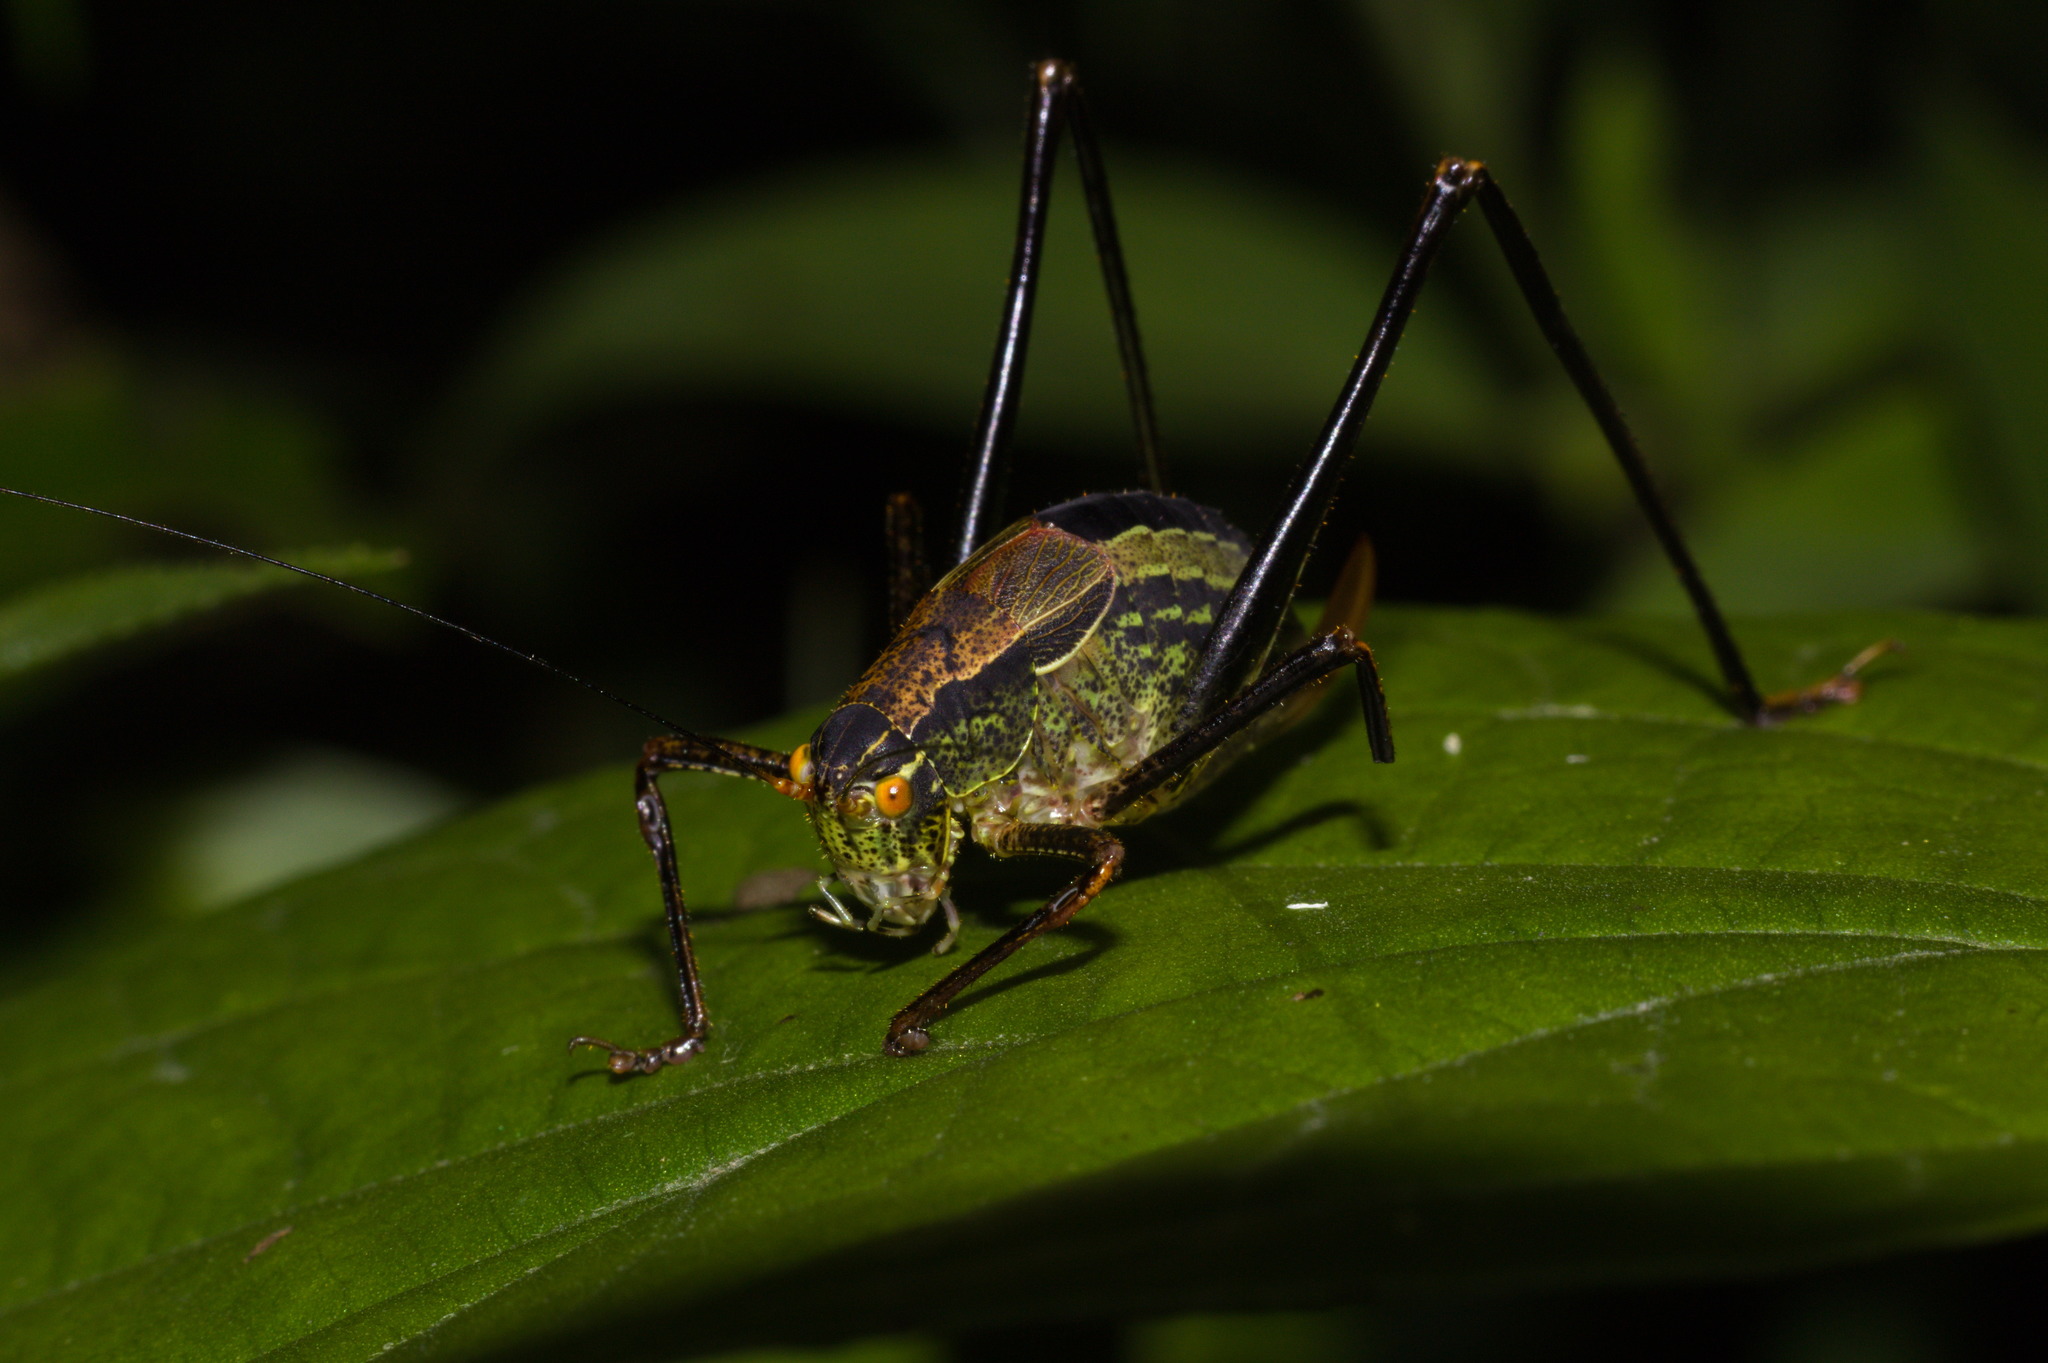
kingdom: Animalia
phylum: Arthropoda
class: Insecta
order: Orthoptera
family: Tettigoniidae
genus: Anisophya
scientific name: Anisophya melanochloris
